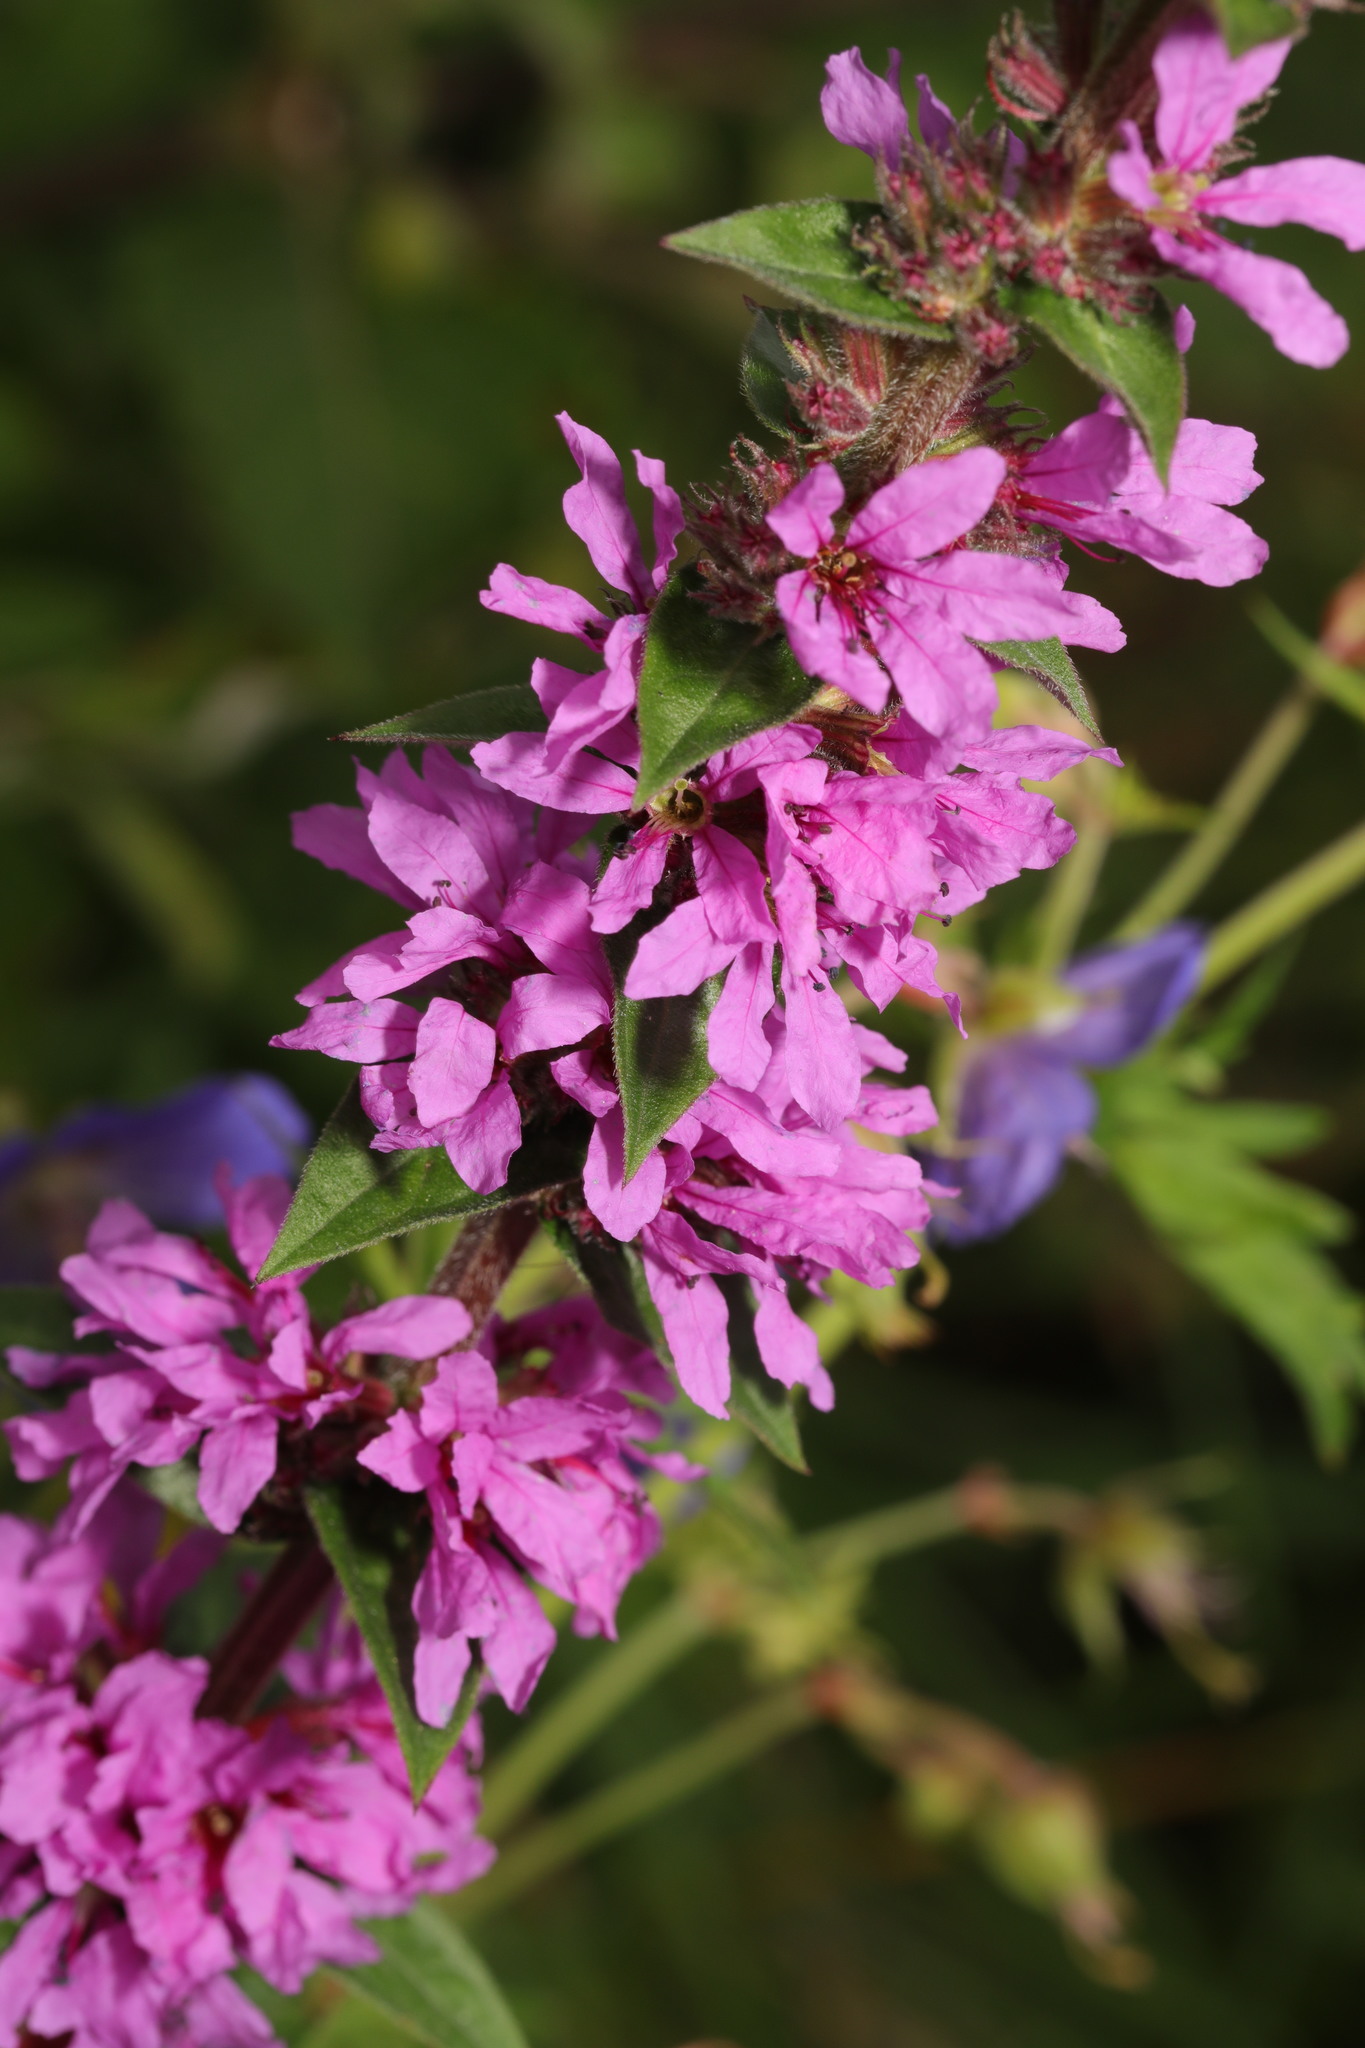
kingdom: Plantae
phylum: Tracheophyta
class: Magnoliopsida
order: Myrtales
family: Lythraceae
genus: Lythrum
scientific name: Lythrum salicaria
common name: Purple loosestrife
